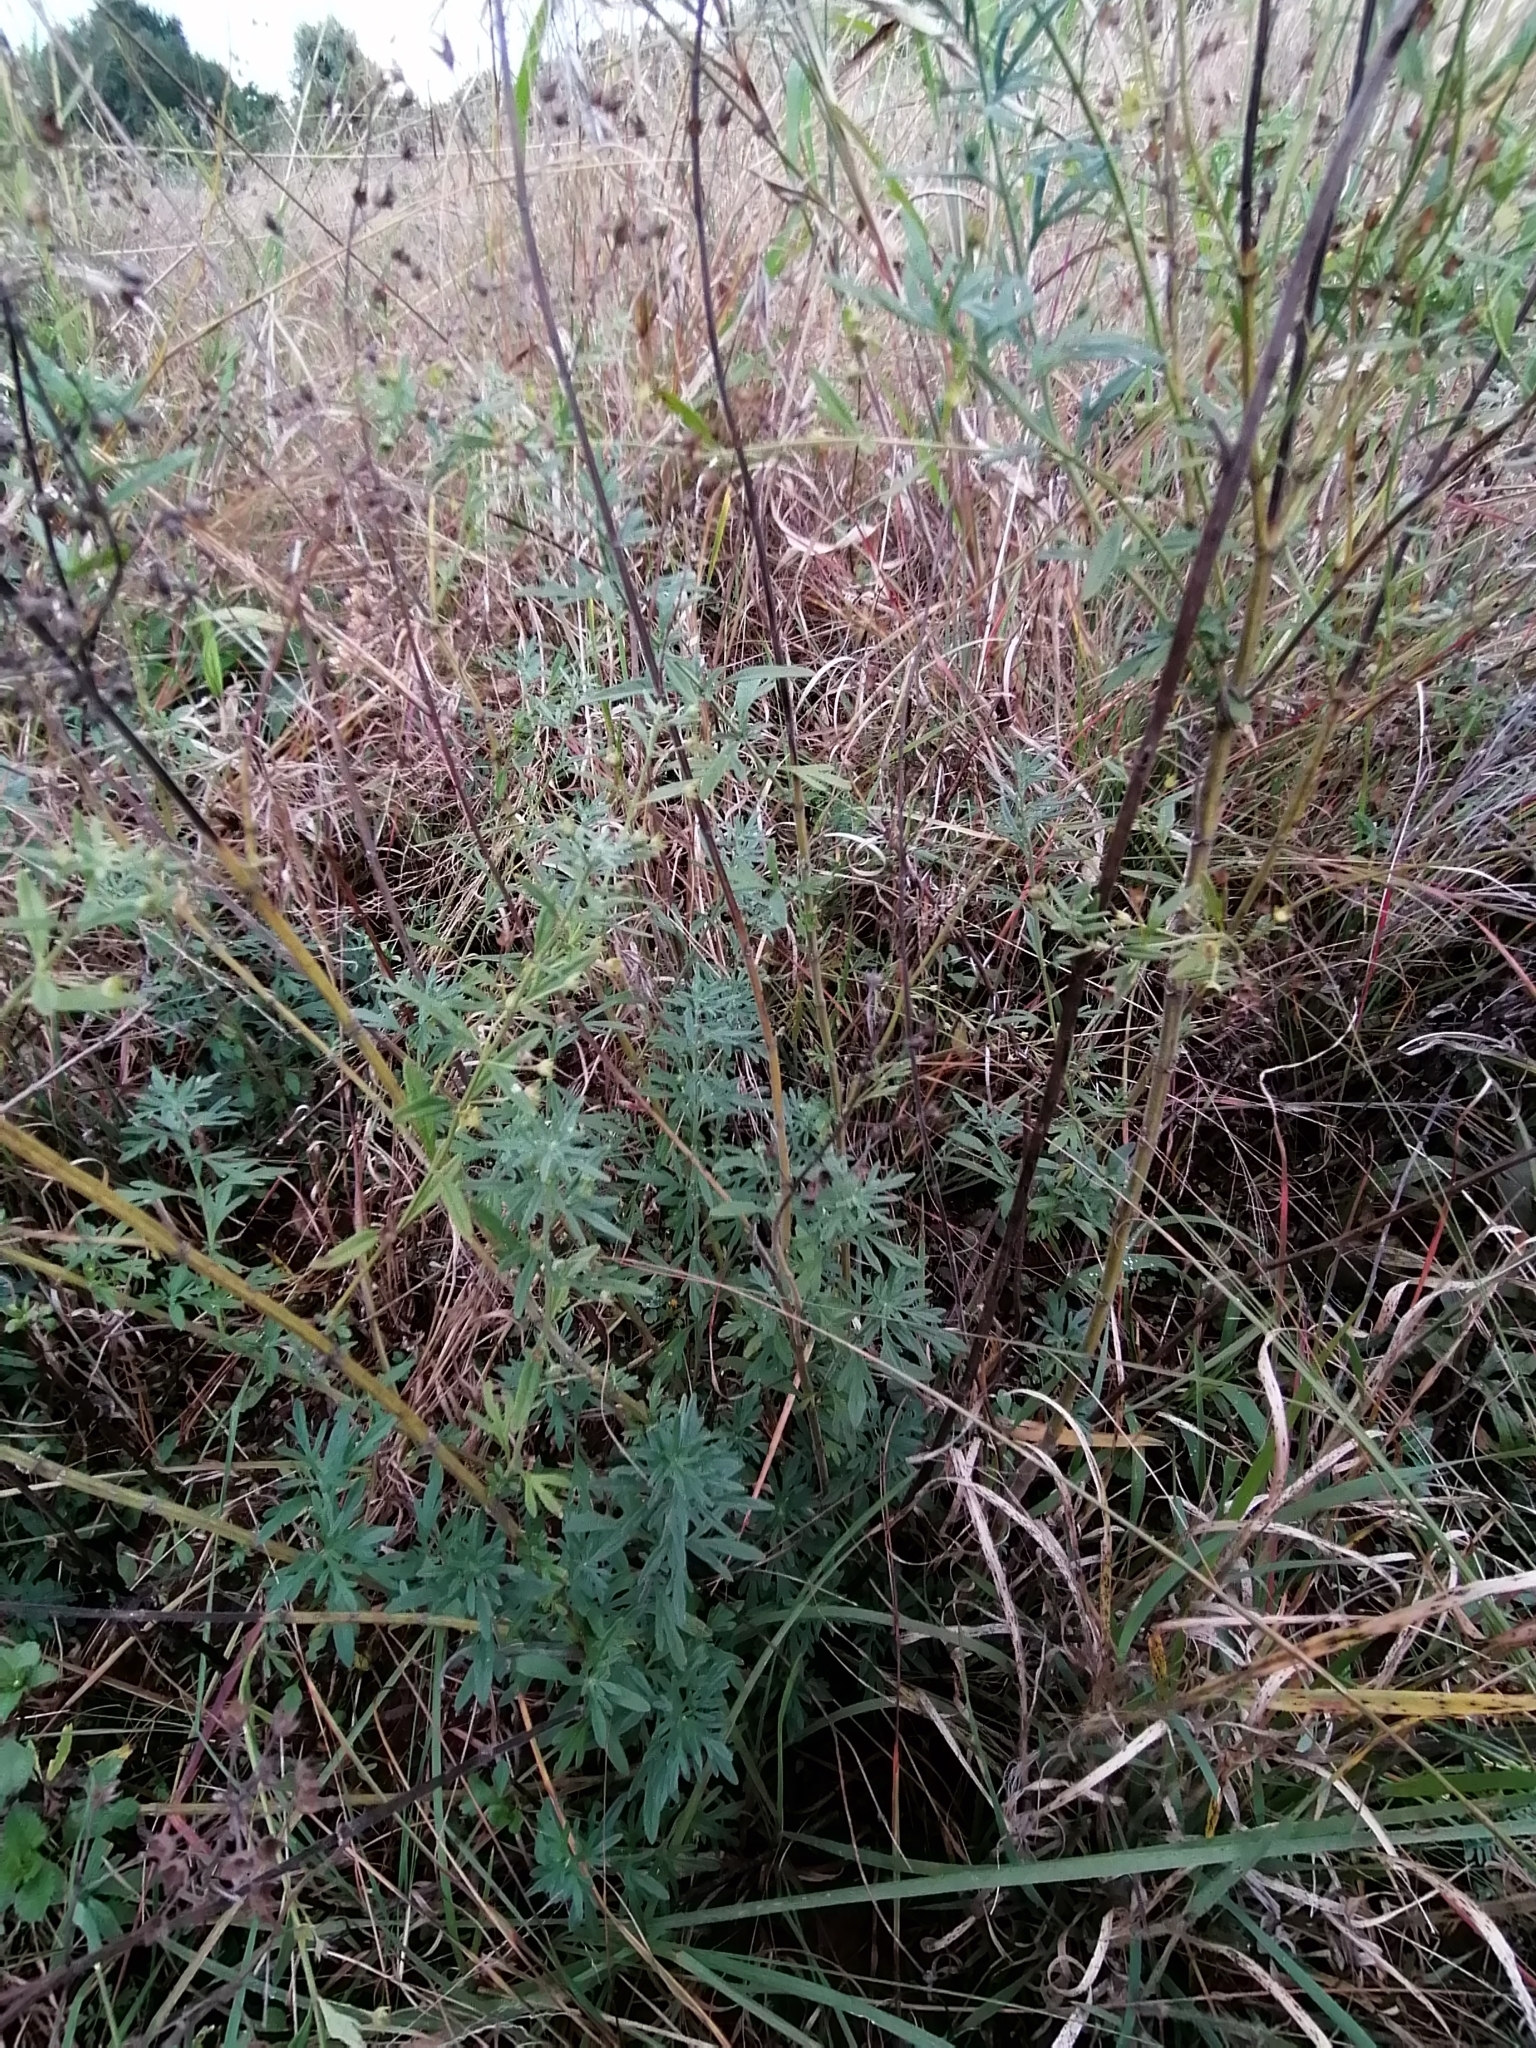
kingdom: Plantae
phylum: Tracheophyta
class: Magnoliopsida
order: Asterales
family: Asteraceae
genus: Artemisia
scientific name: Artemisia afra
